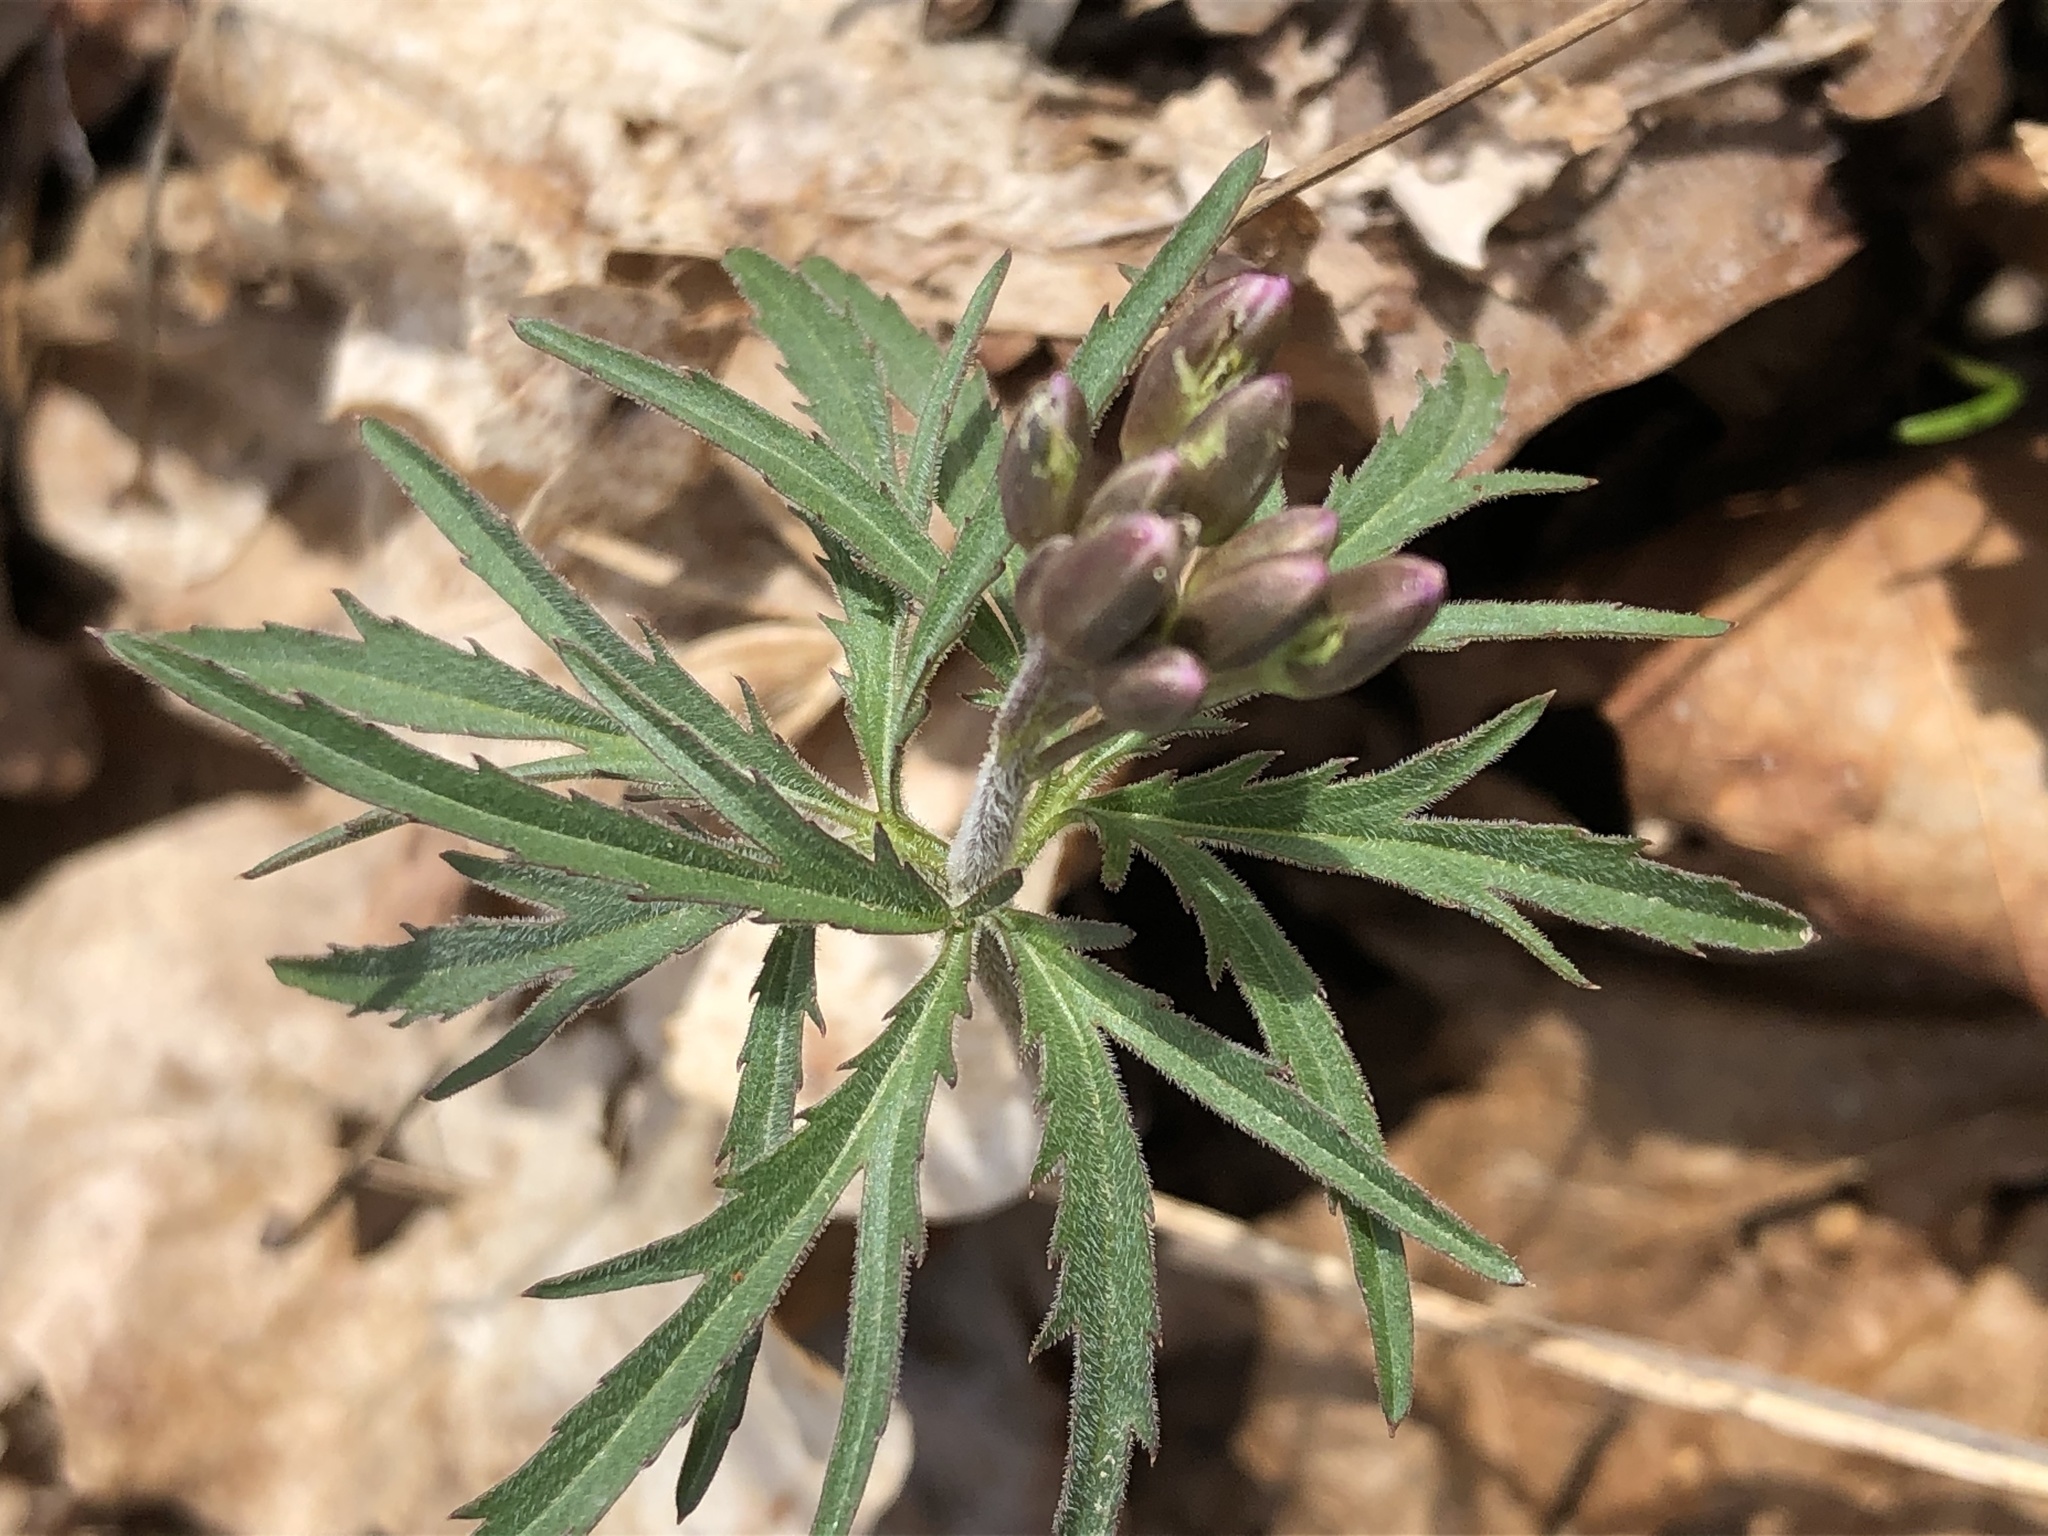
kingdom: Plantae
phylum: Tracheophyta
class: Magnoliopsida
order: Brassicales
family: Brassicaceae
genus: Cardamine
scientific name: Cardamine concatenata
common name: Cut-leaf toothcup
